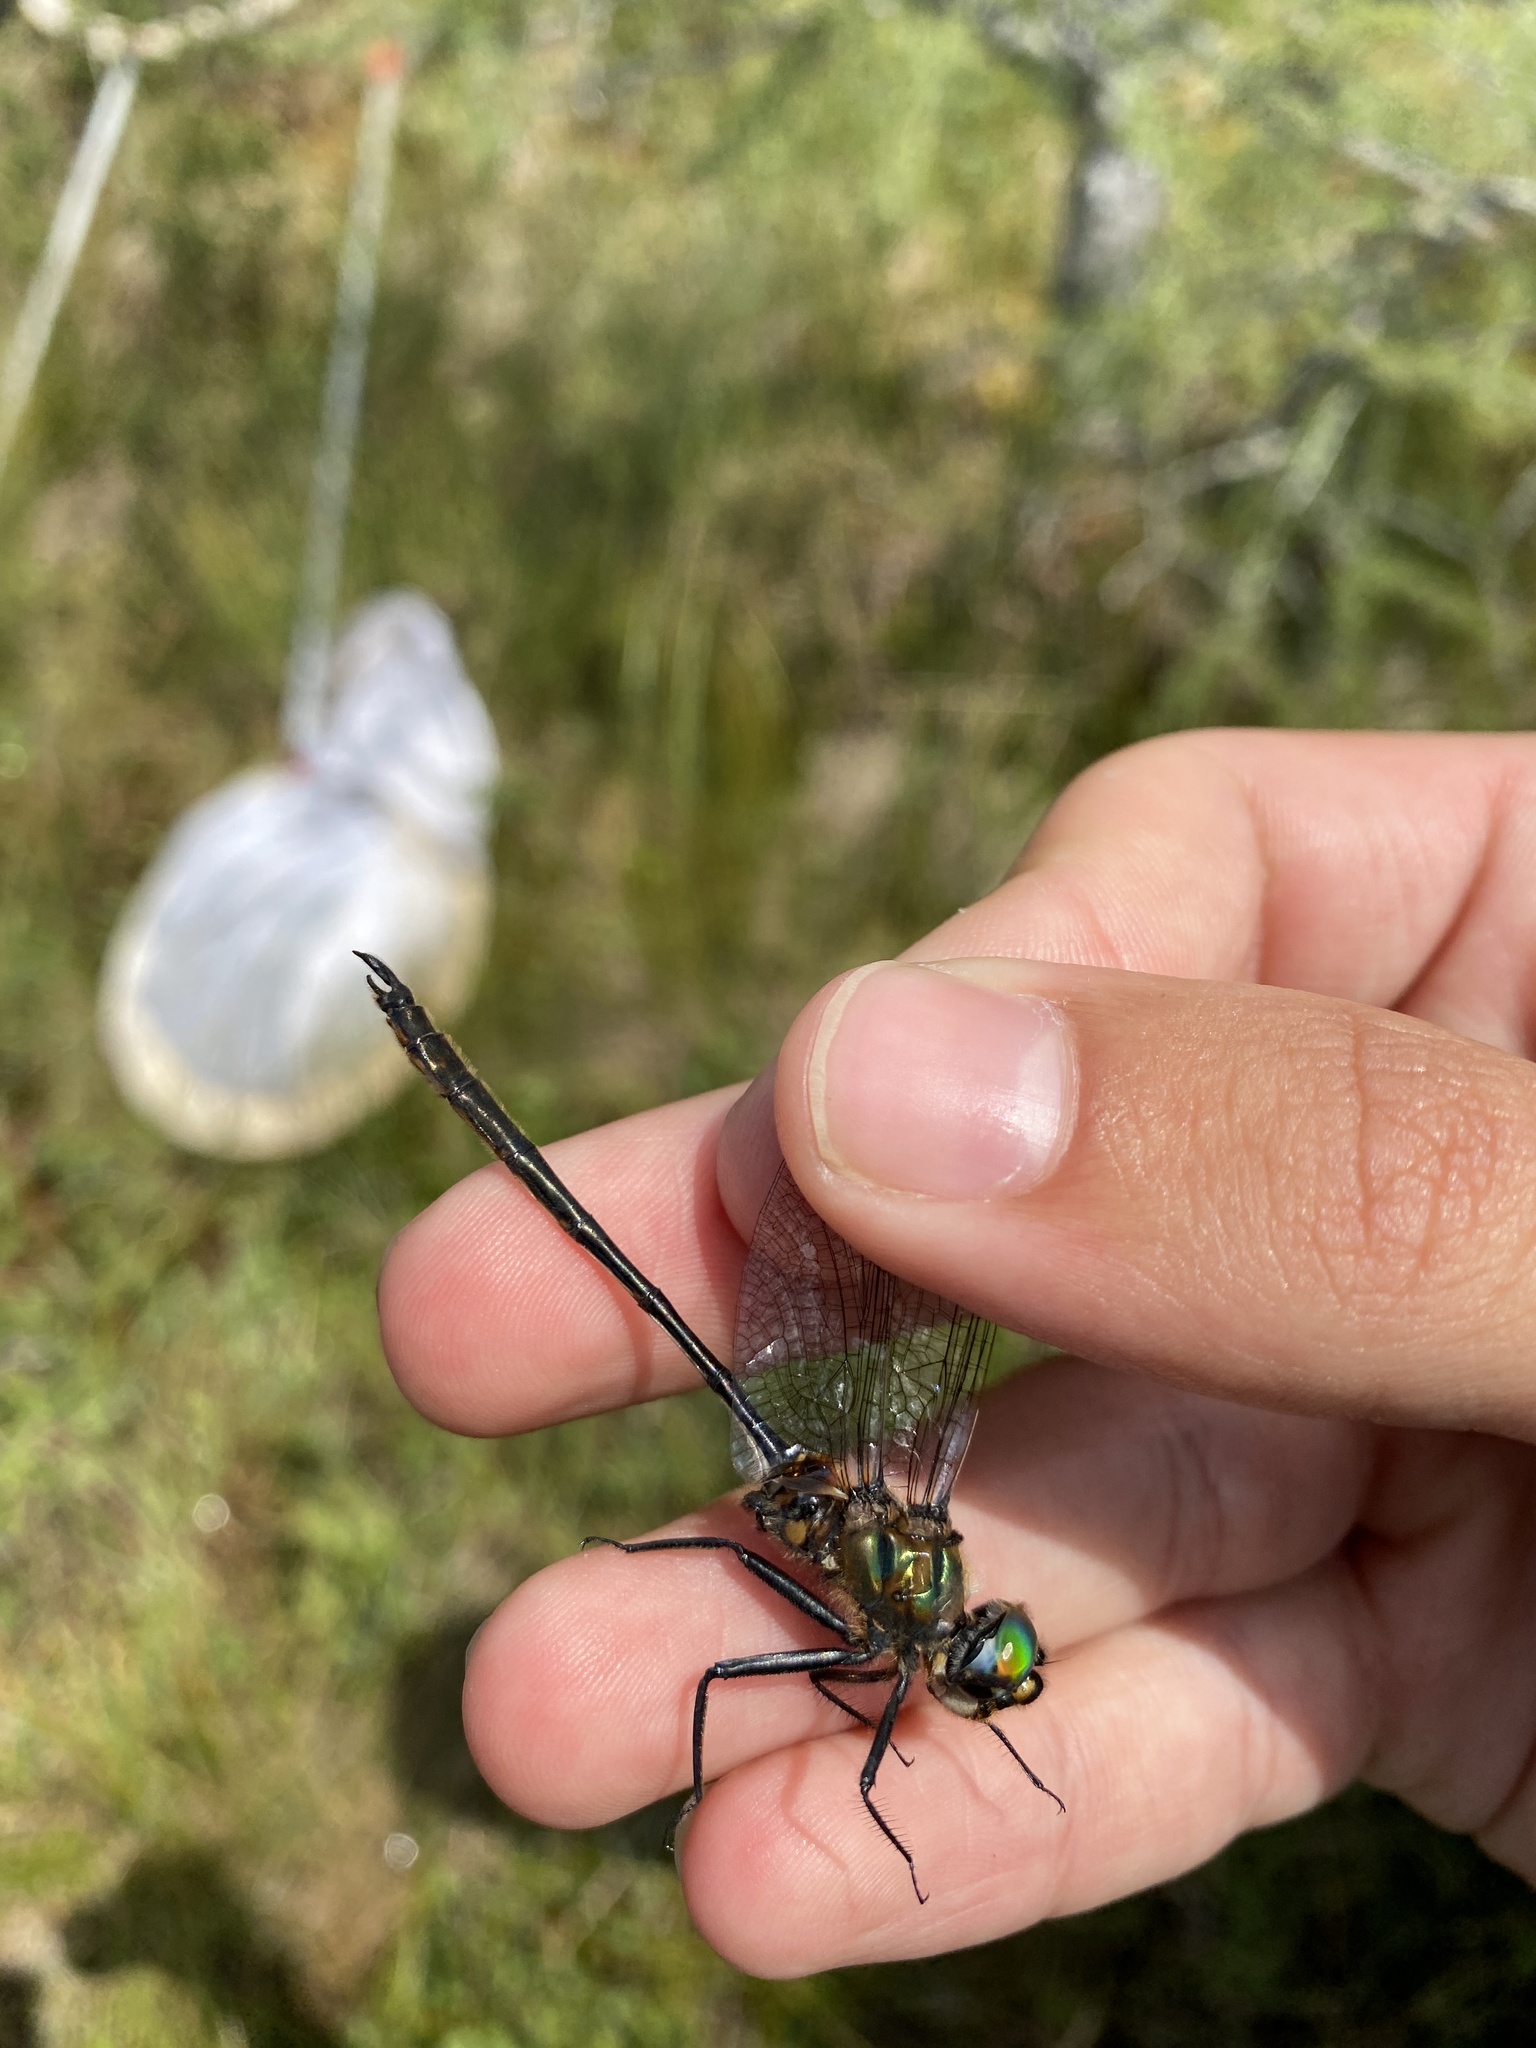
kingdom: Animalia
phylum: Arthropoda
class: Insecta
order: Odonata
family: Corduliidae
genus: Somatochlora
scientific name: Somatochlora franklini
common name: Delicate emerald
